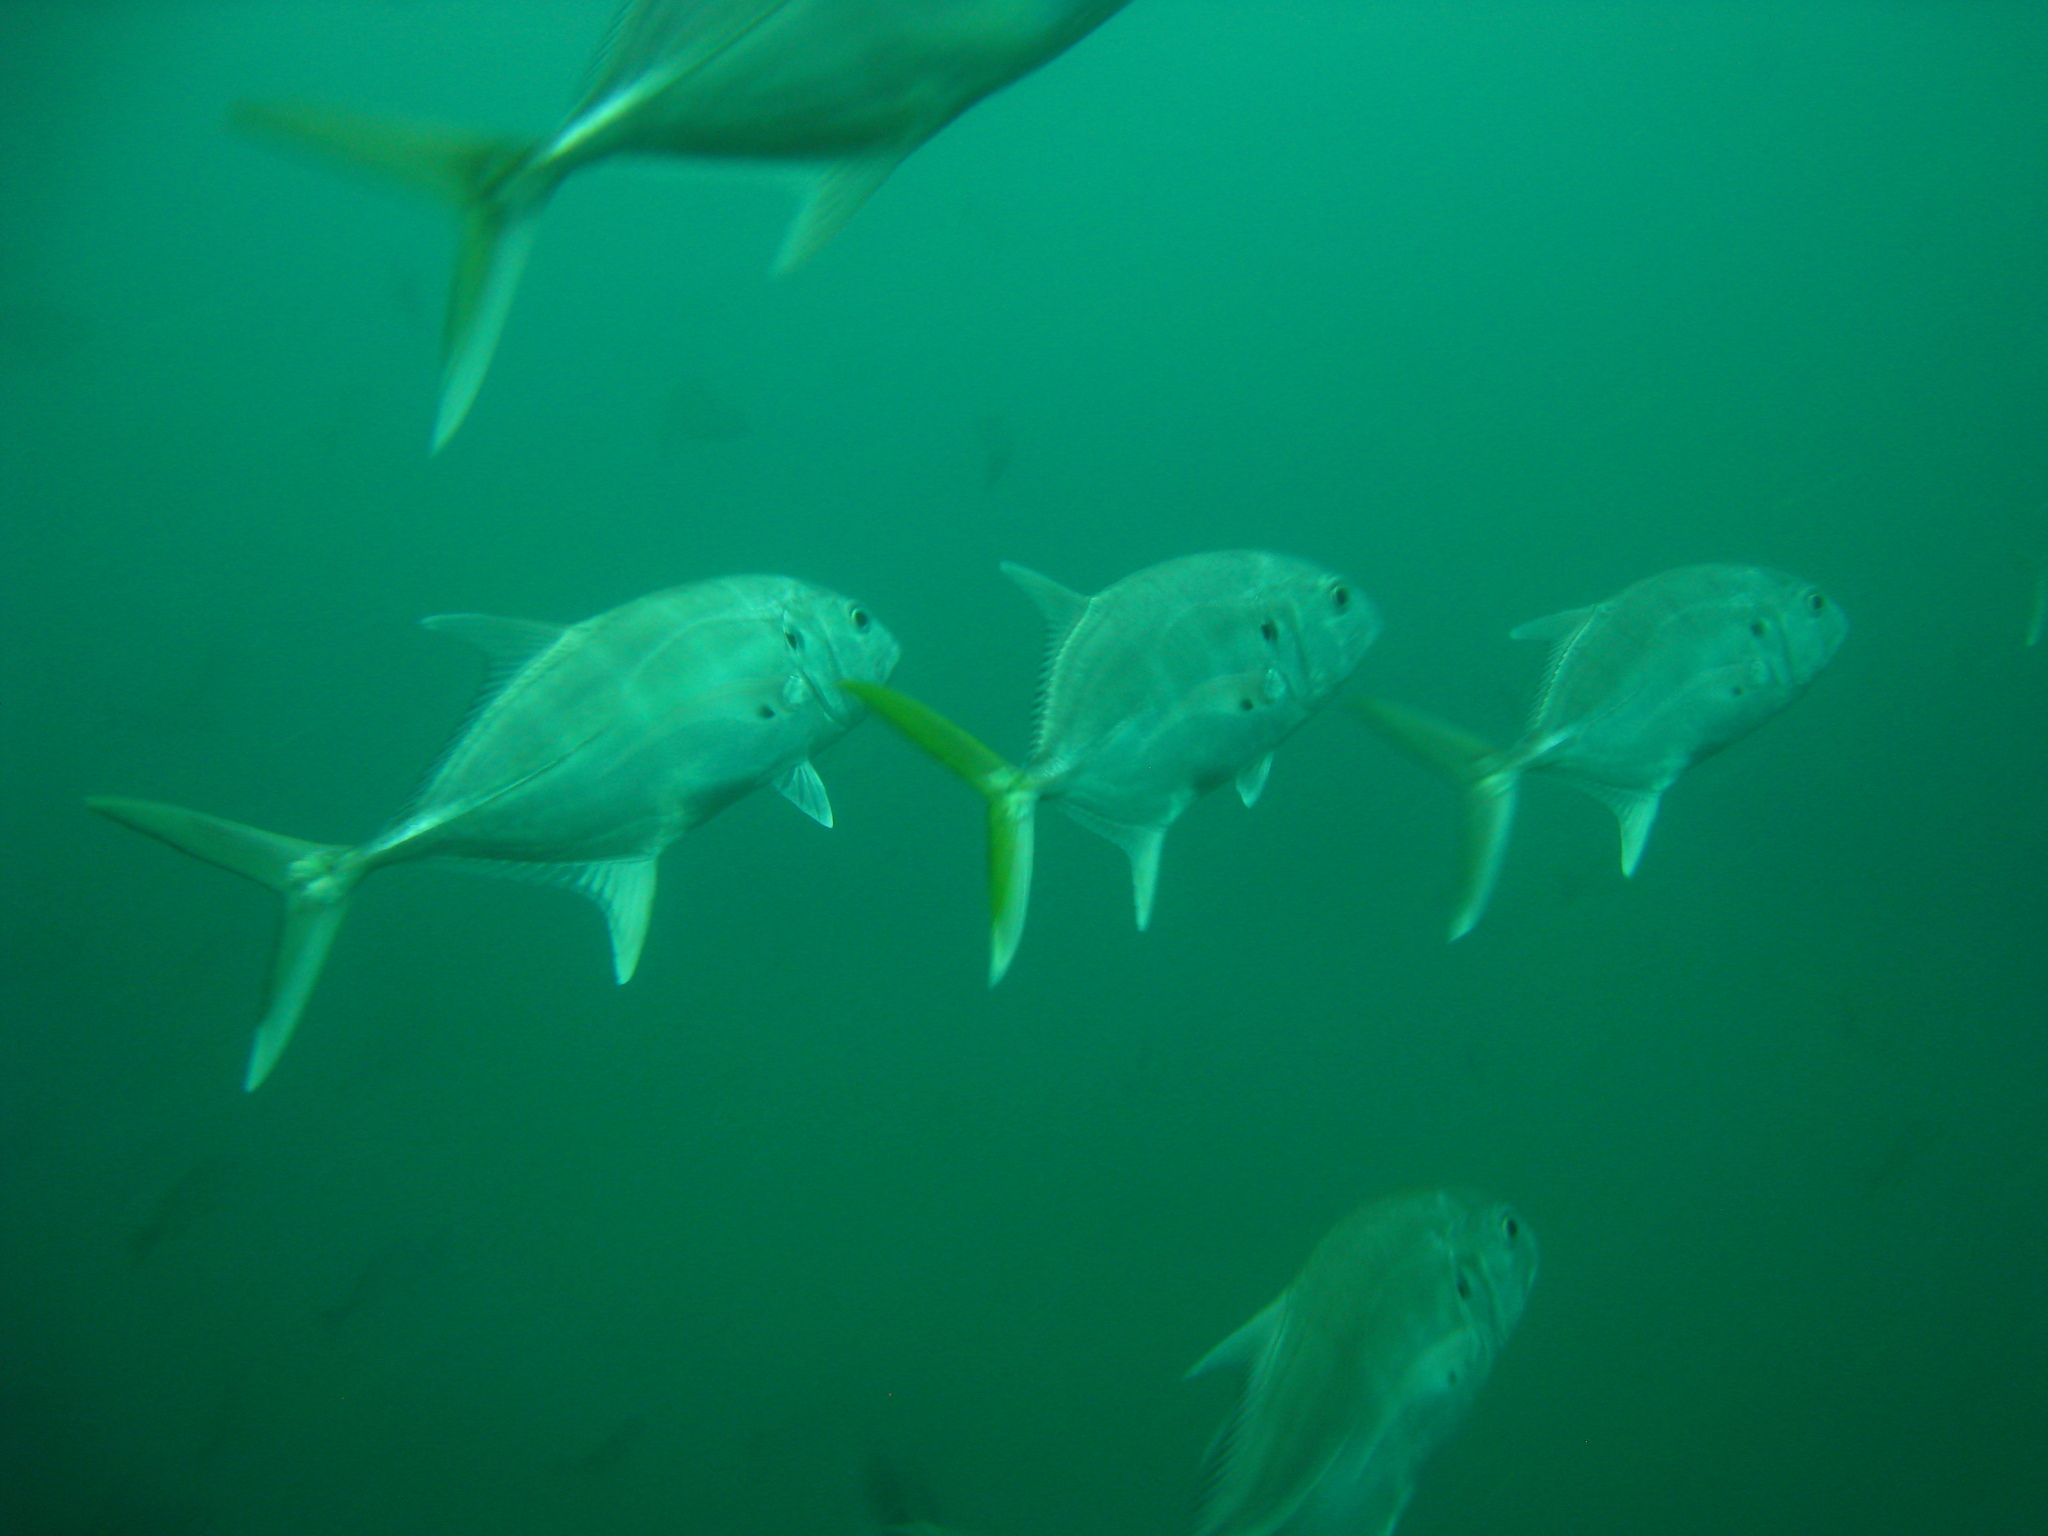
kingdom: Animalia
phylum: Chordata
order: Perciformes
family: Carangidae
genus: Caranx
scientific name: Caranx caninus
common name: Pacific crevalle jack
